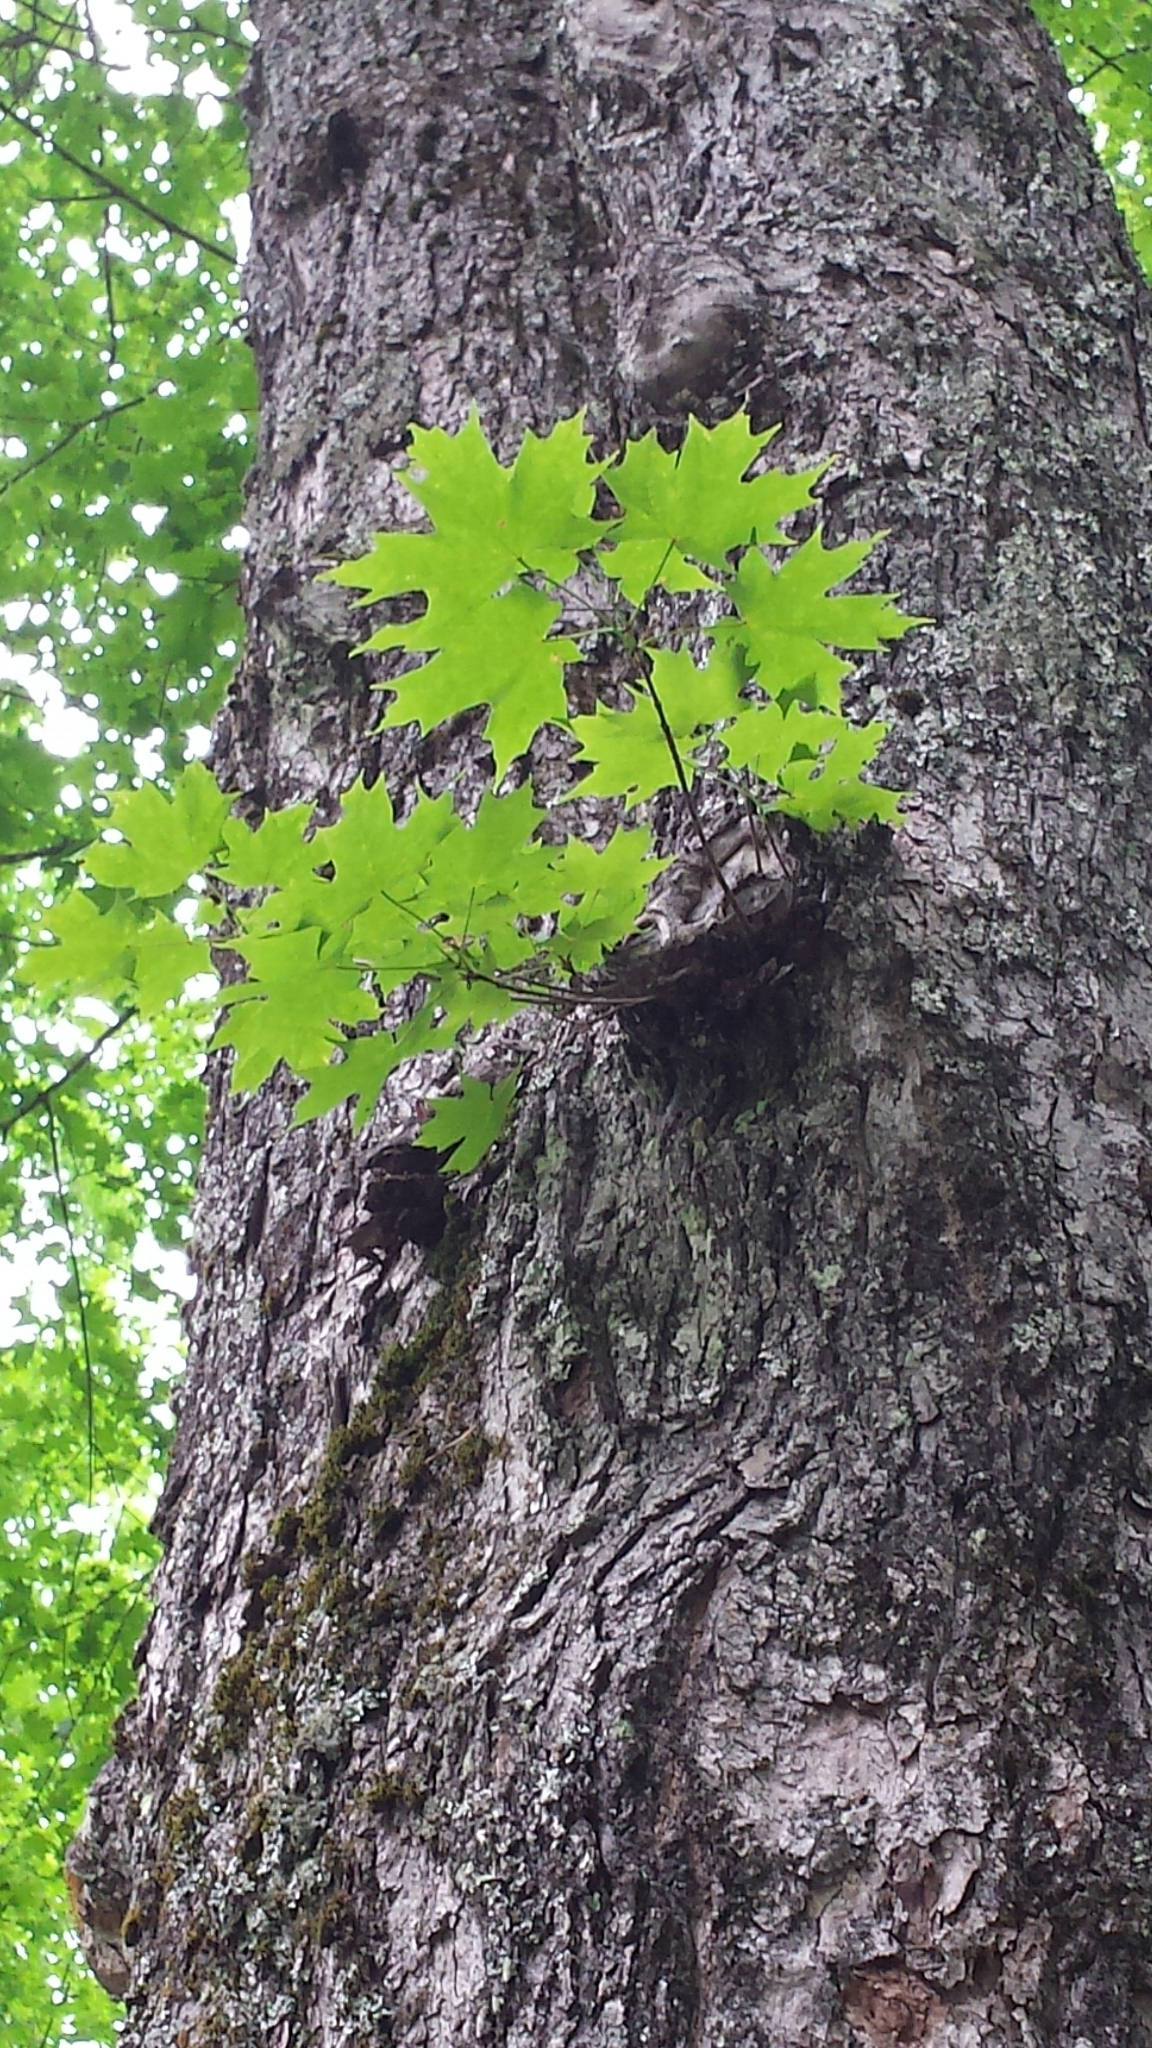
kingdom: Plantae
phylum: Tracheophyta
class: Magnoliopsida
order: Sapindales
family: Sapindaceae
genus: Acer
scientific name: Acer saccharum
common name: Sugar maple
